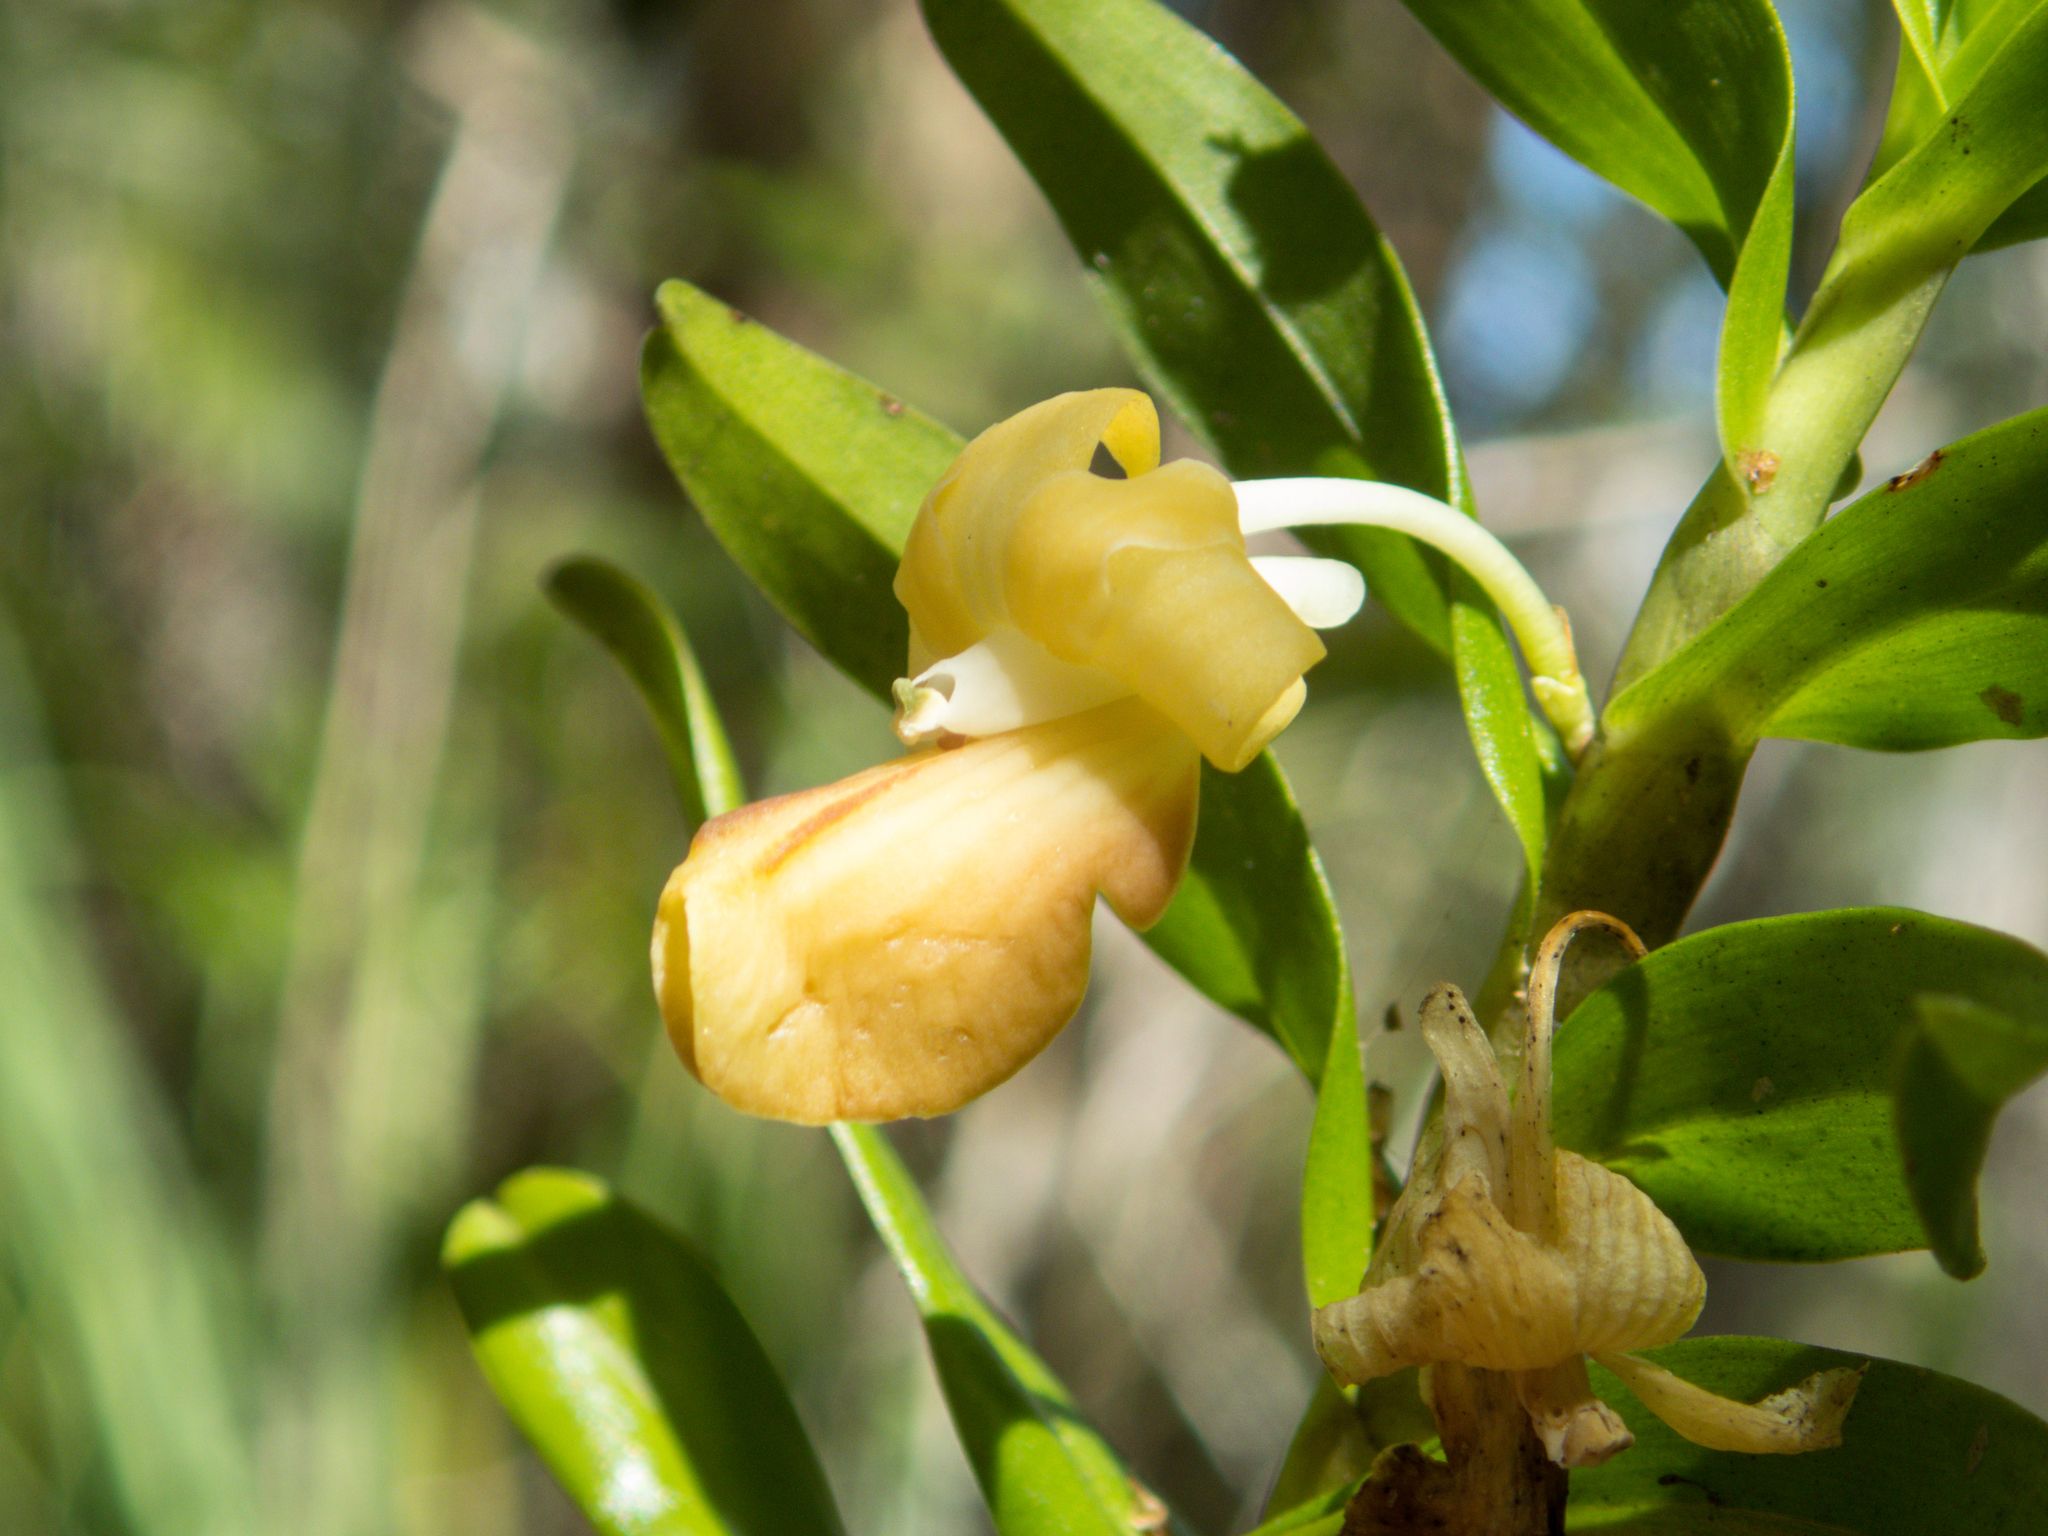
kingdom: Plantae
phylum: Tracheophyta
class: Liliopsida
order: Asparagales
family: Orchidaceae
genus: Dendrobium
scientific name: Dendrobium ellipsophyllum
